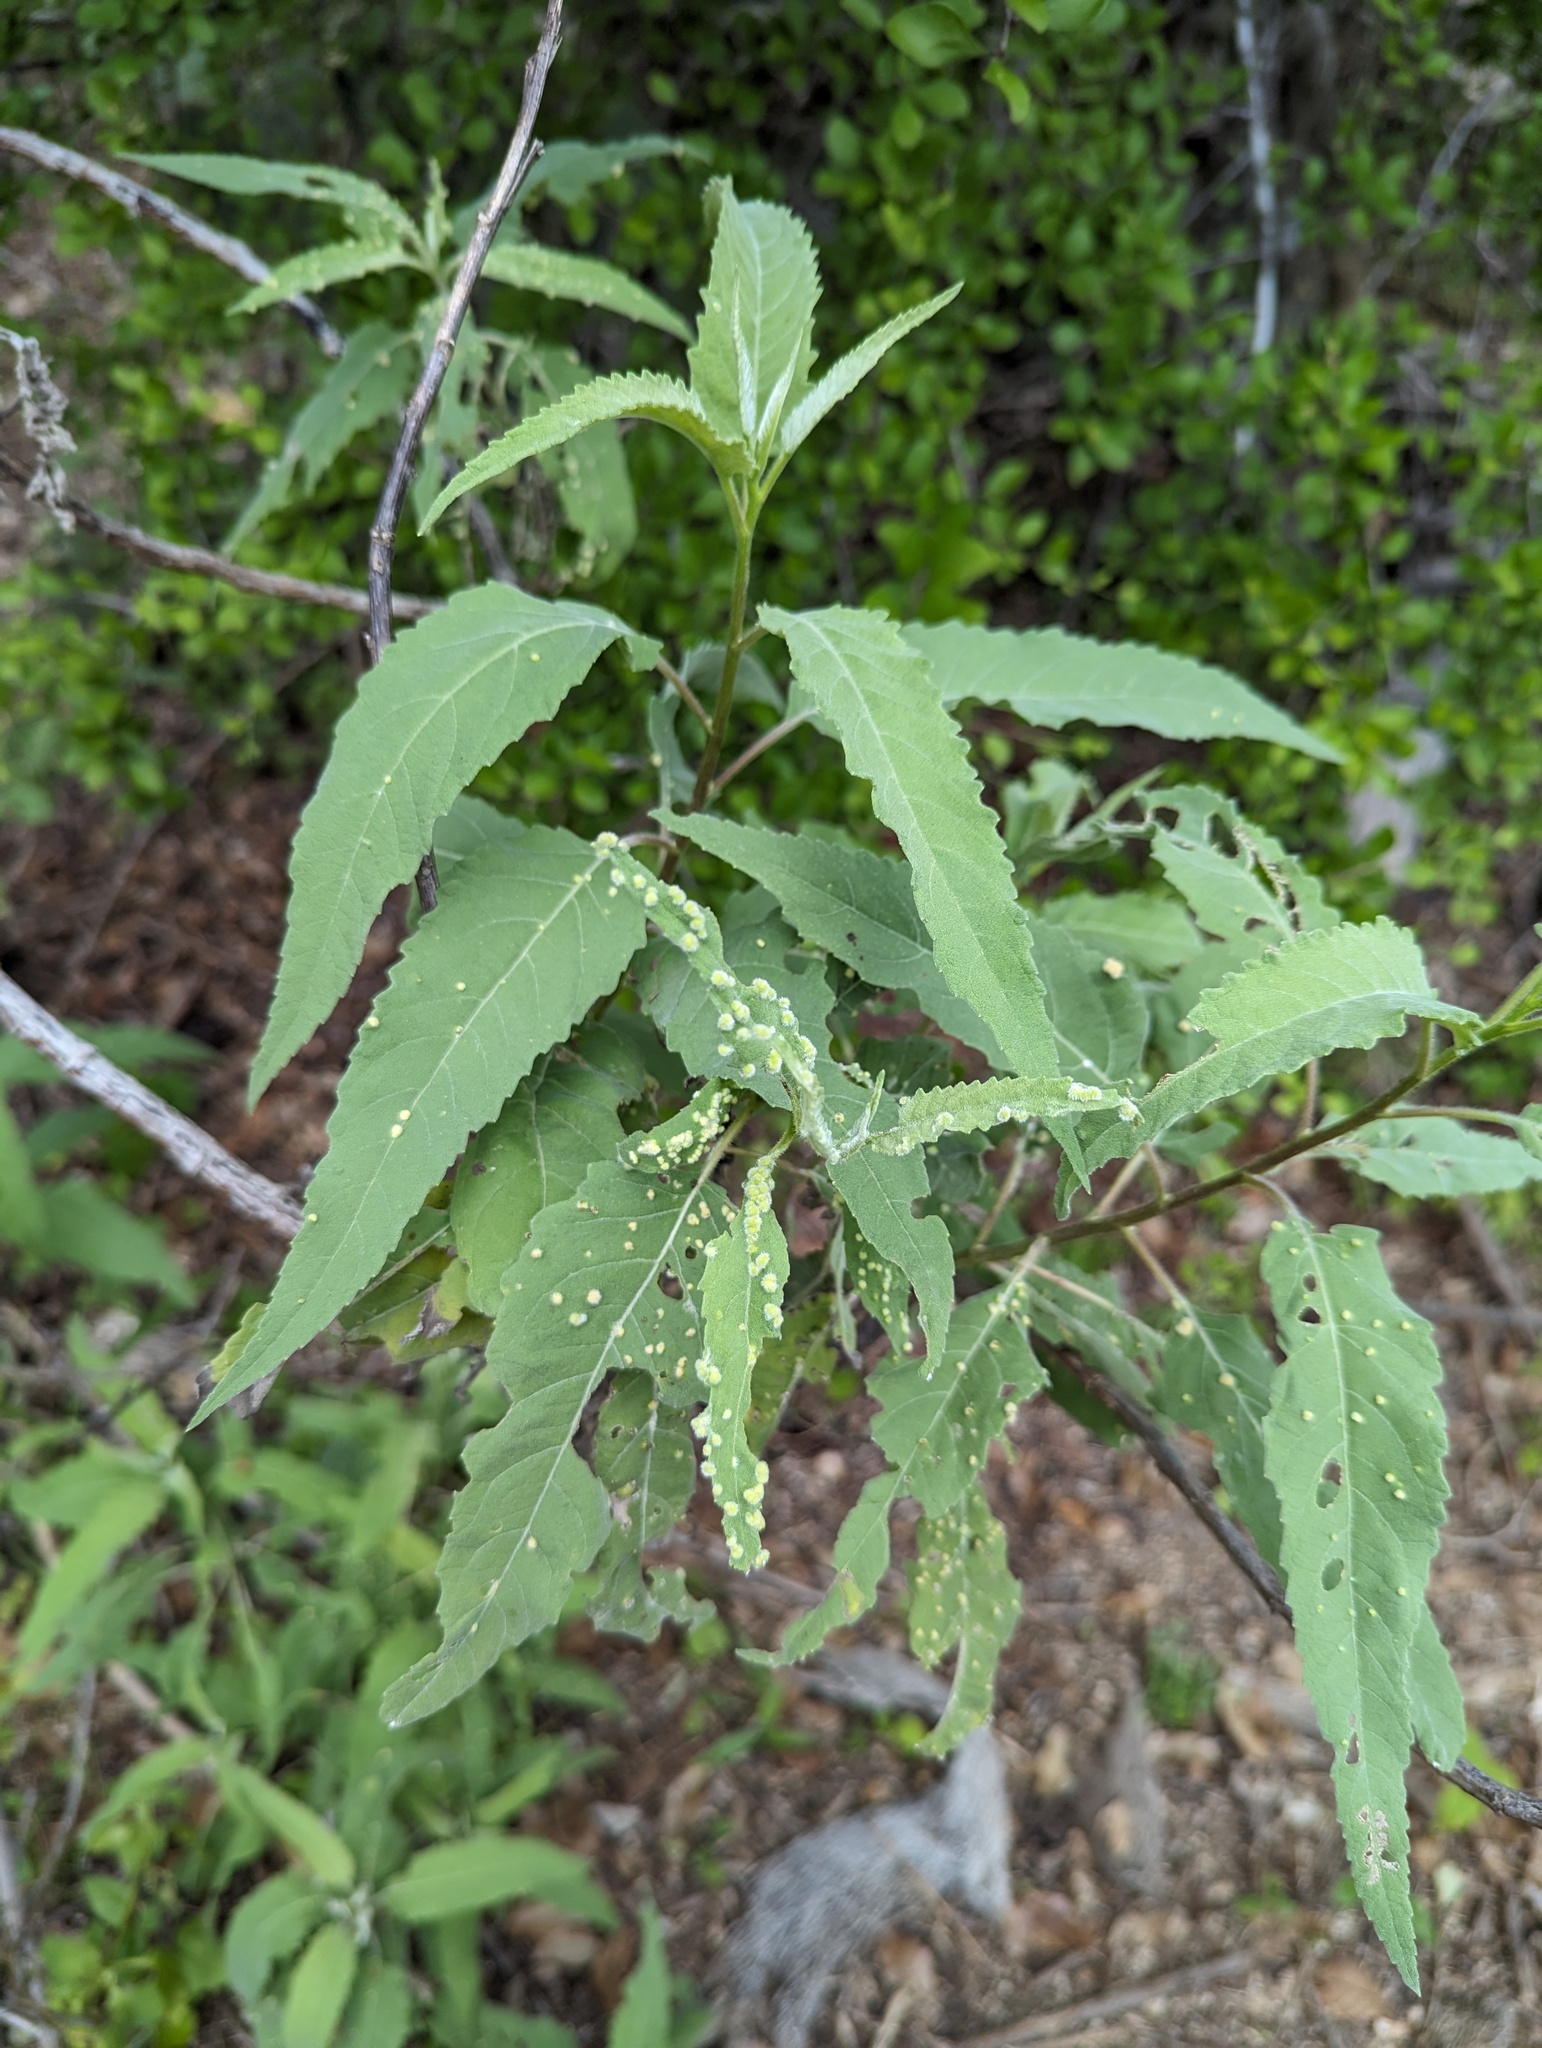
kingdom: Plantae
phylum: Tracheophyta
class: Magnoliopsida
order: Asterales
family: Asteraceae
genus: Ambrosia
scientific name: Ambrosia ambrosioides
